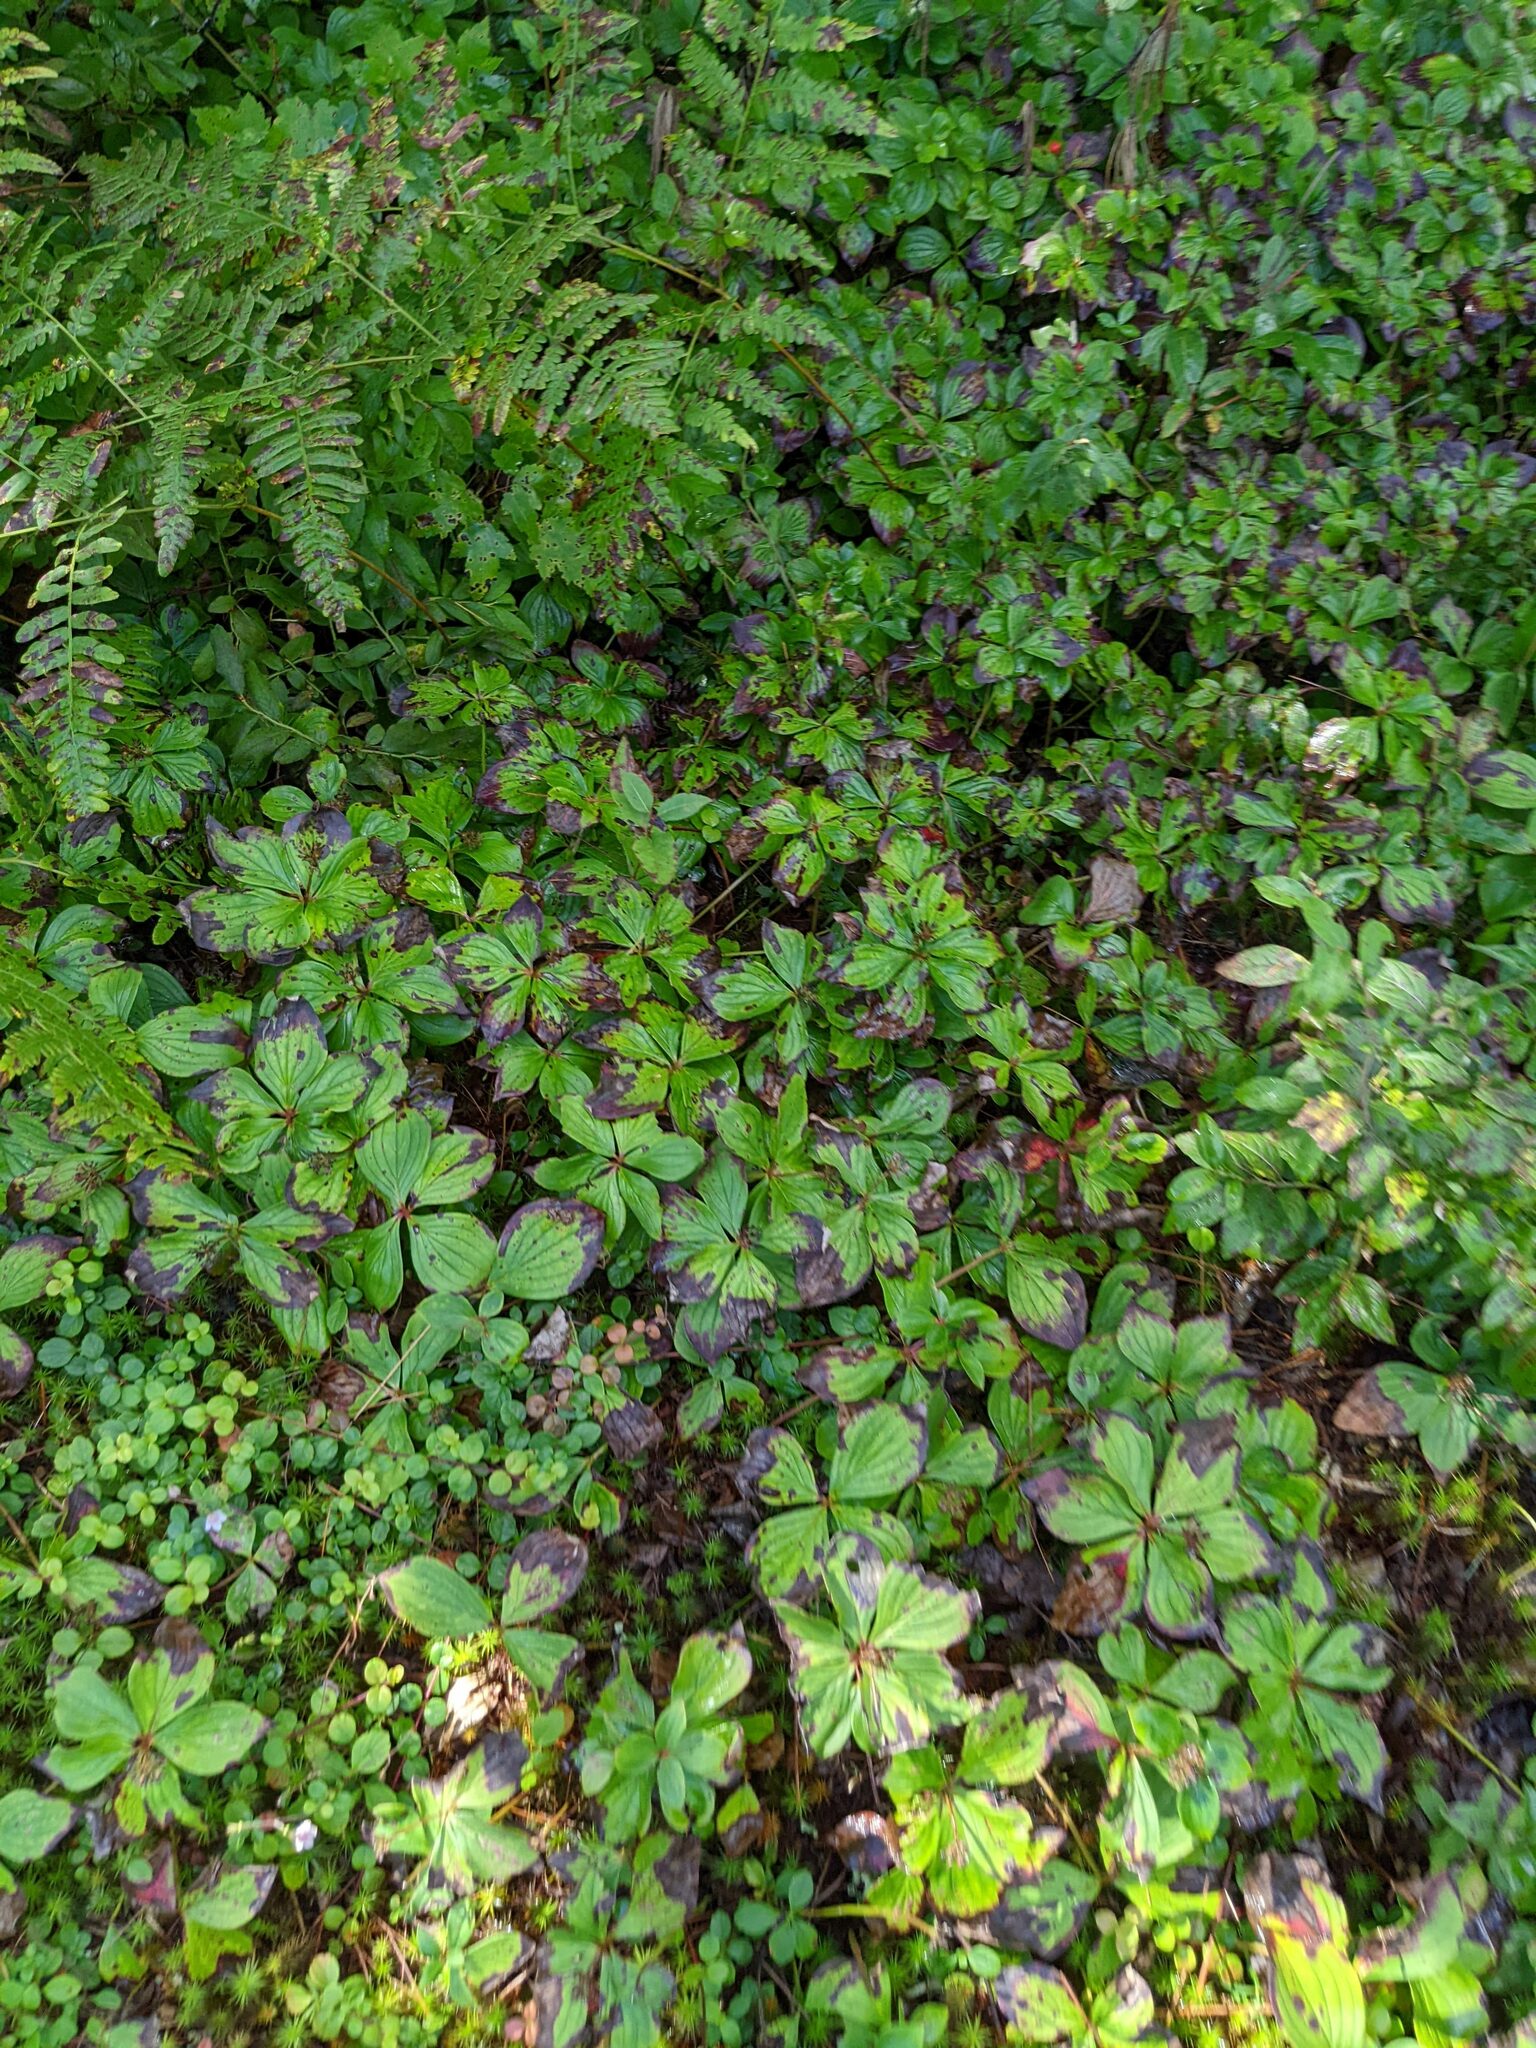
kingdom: Plantae
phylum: Tracheophyta
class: Magnoliopsida
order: Cornales
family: Cornaceae
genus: Cornus
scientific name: Cornus canadensis
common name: Creeping dogwood
